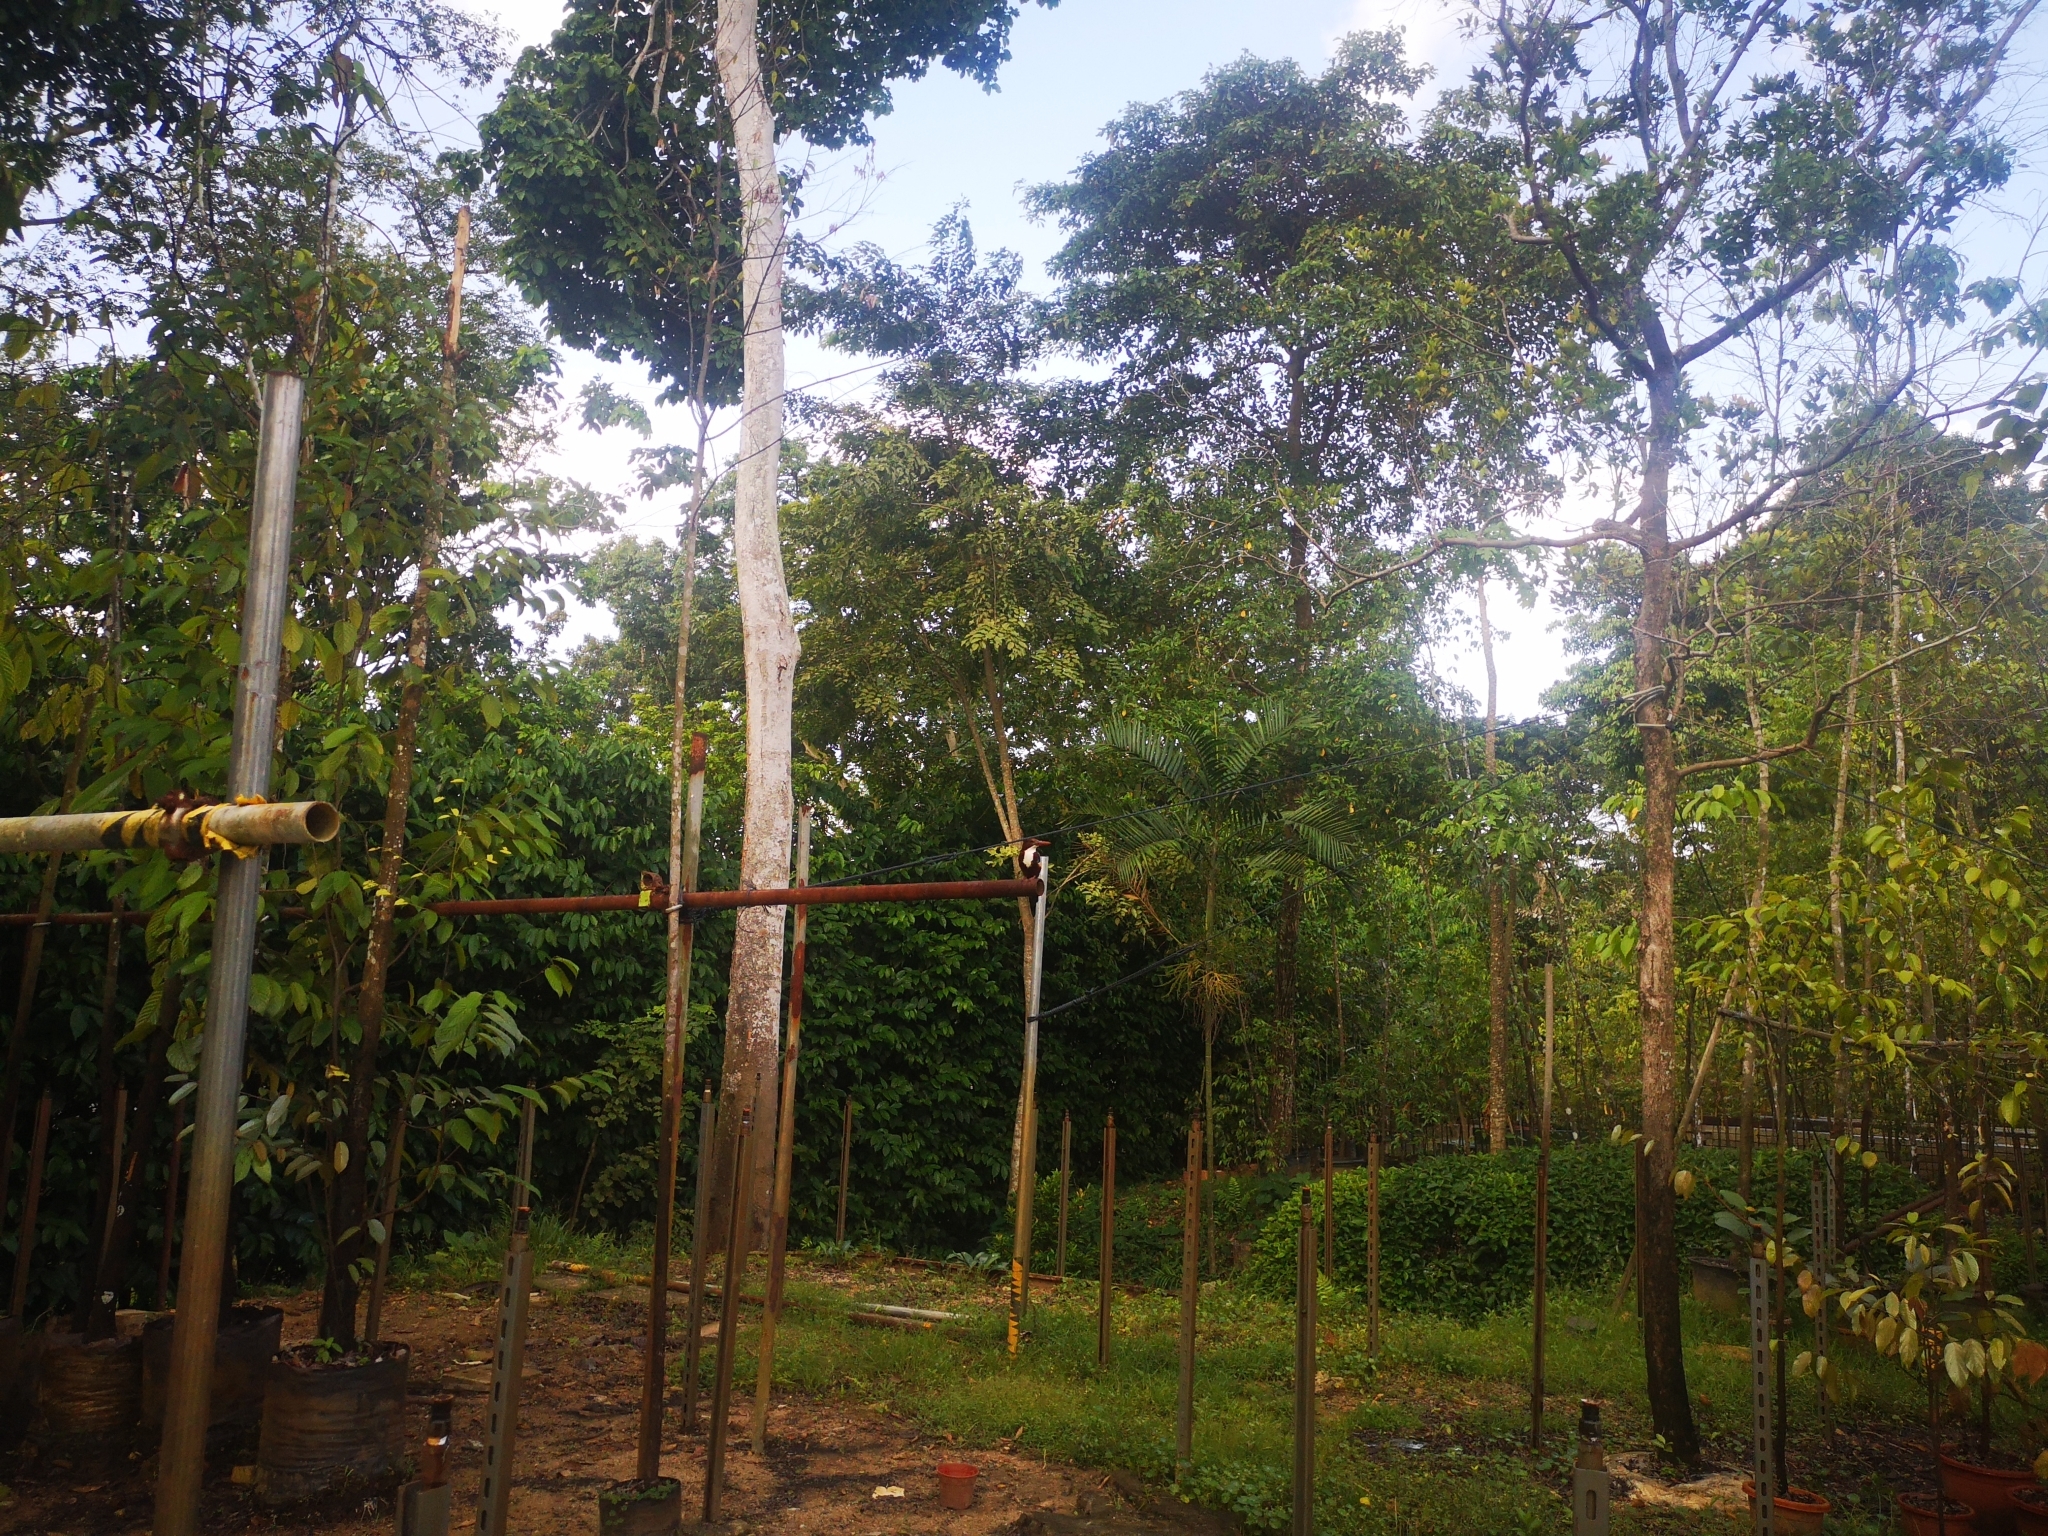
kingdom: Animalia
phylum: Chordata
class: Aves
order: Coraciiformes
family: Alcedinidae
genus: Halcyon
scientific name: Halcyon smyrnensis
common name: White-throated kingfisher
